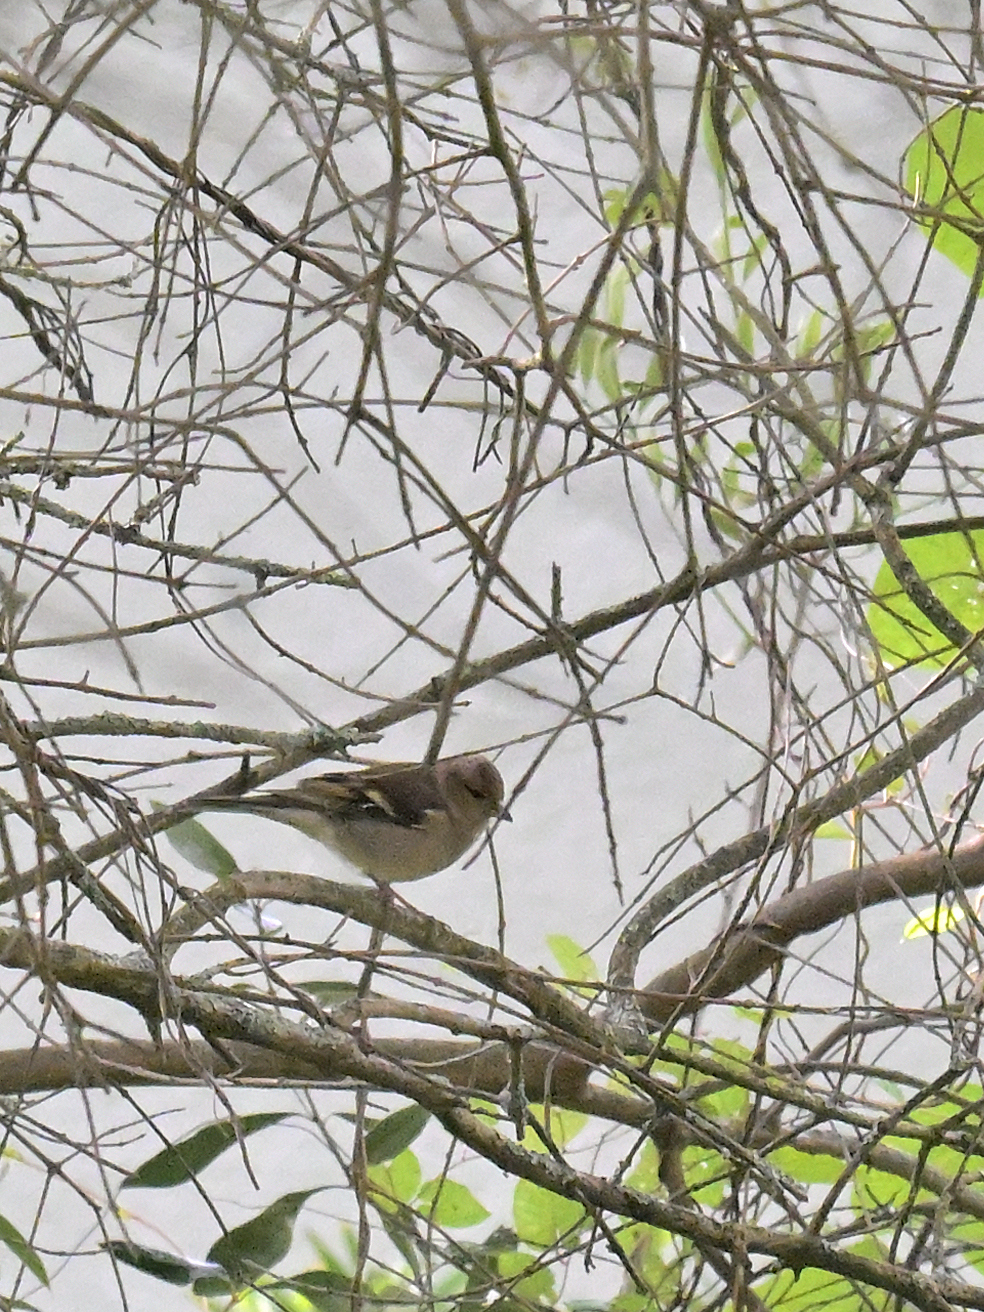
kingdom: Animalia
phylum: Chordata
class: Aves
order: Passeriformes
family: Fringillidae
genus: Fringilla
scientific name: Fringilla coelebs
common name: Common chaffinch
